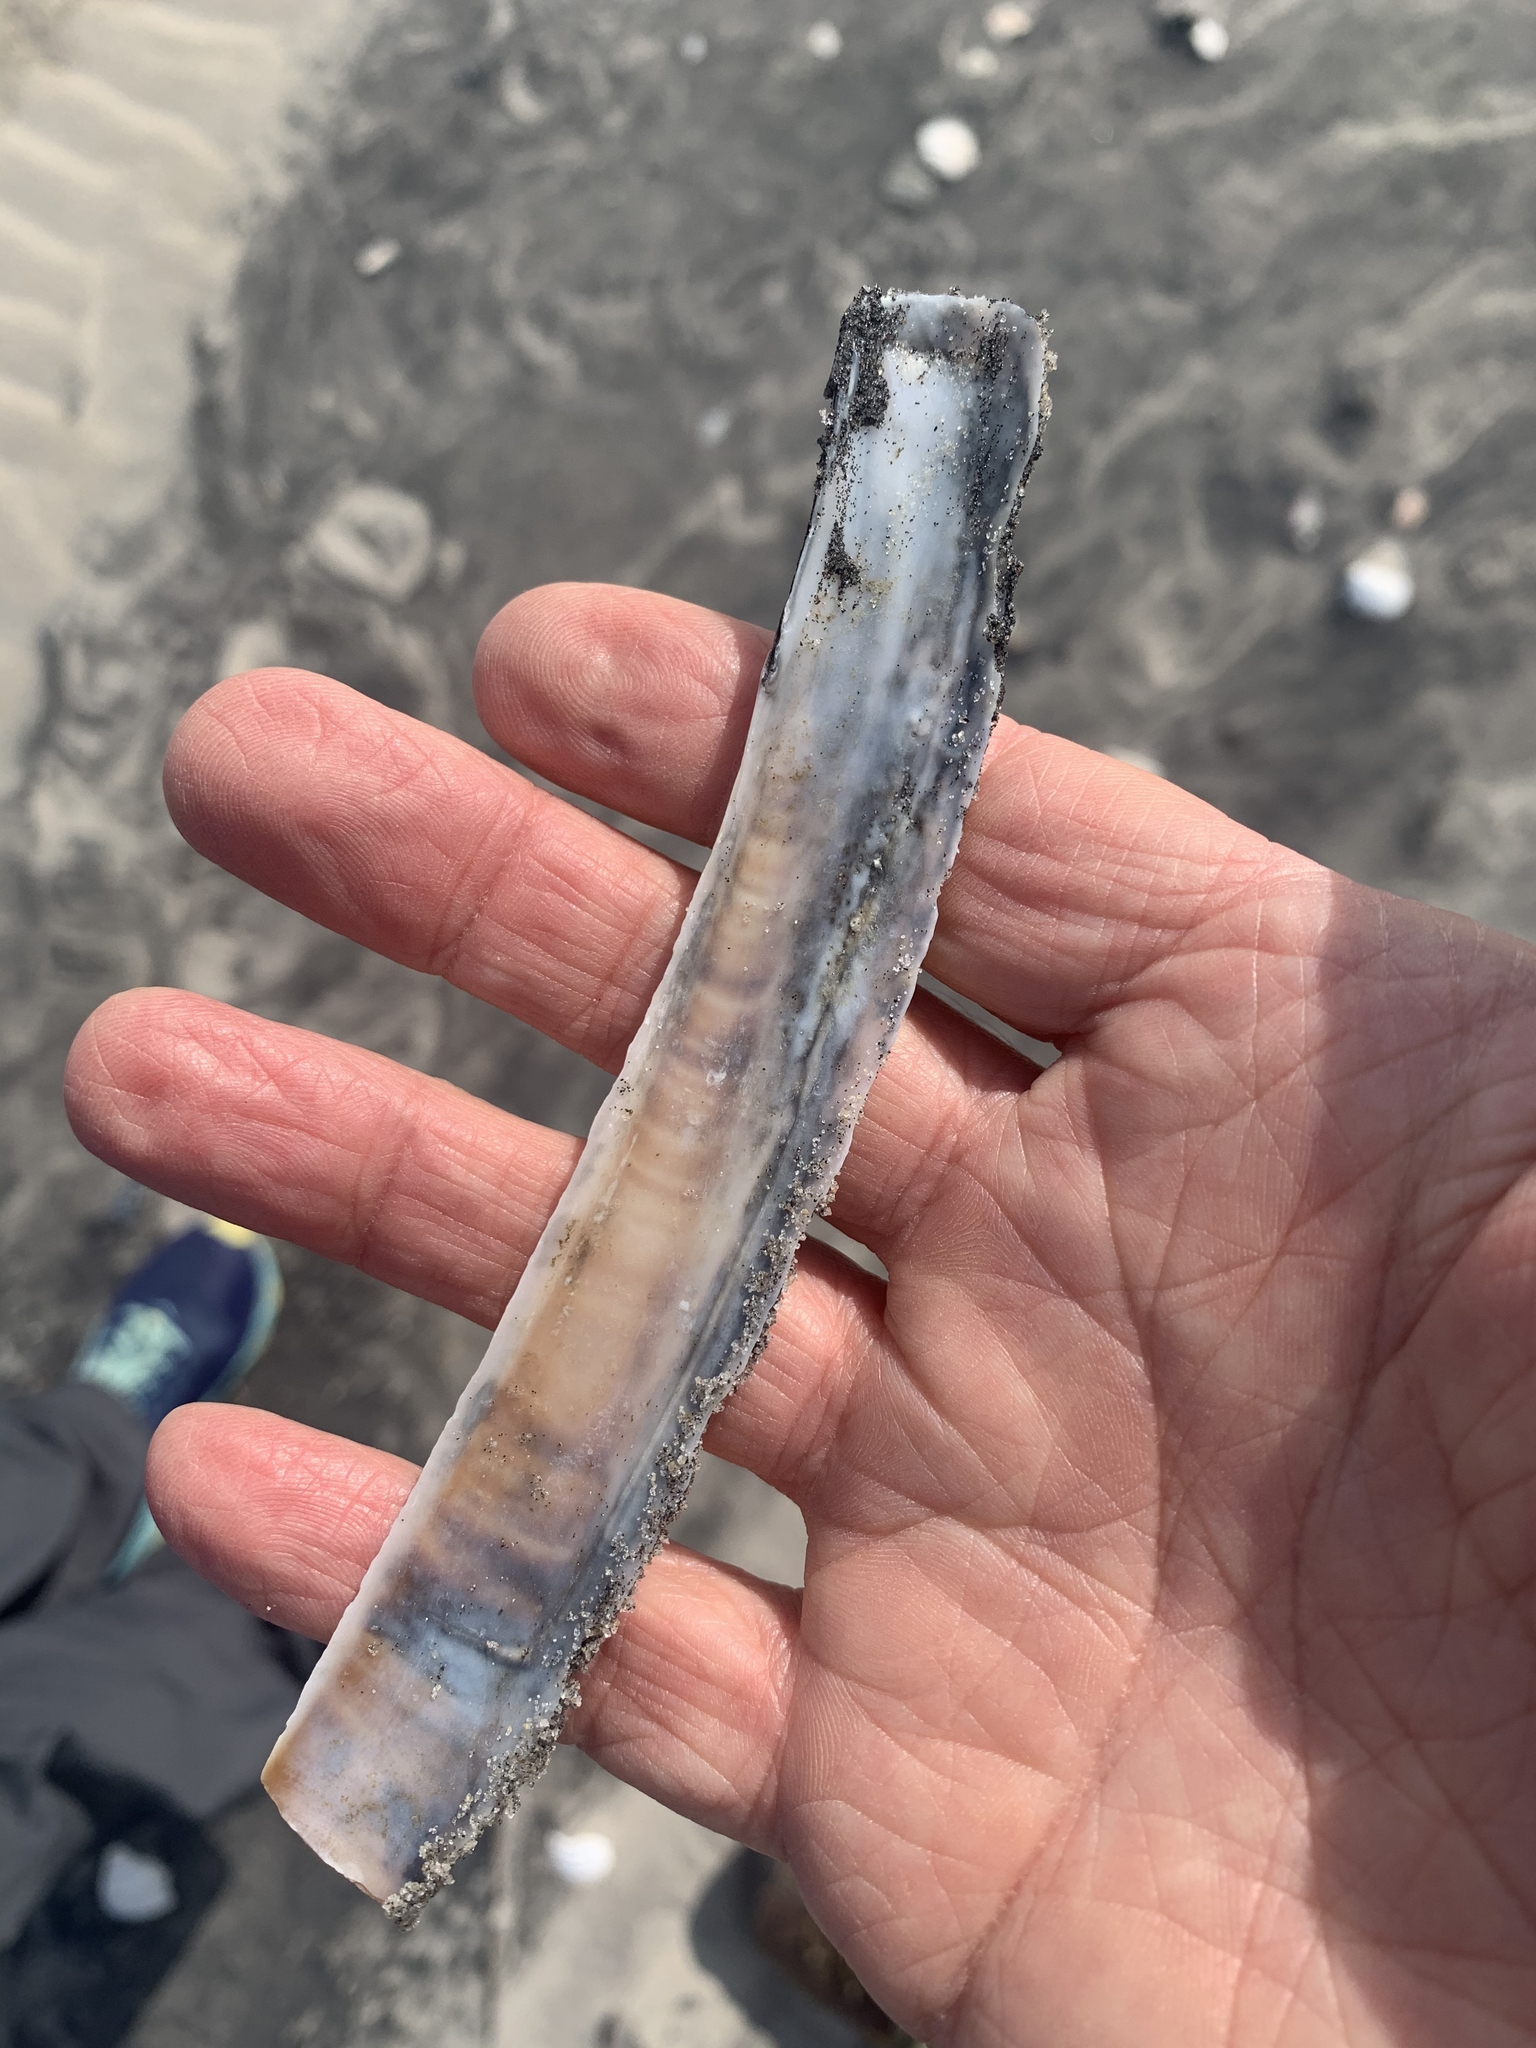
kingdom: Animalia
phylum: Mollusca
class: Bivalvia
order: Adapedonta
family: Pharidae
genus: Ensis
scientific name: Ensis leei
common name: American jack knife clam
